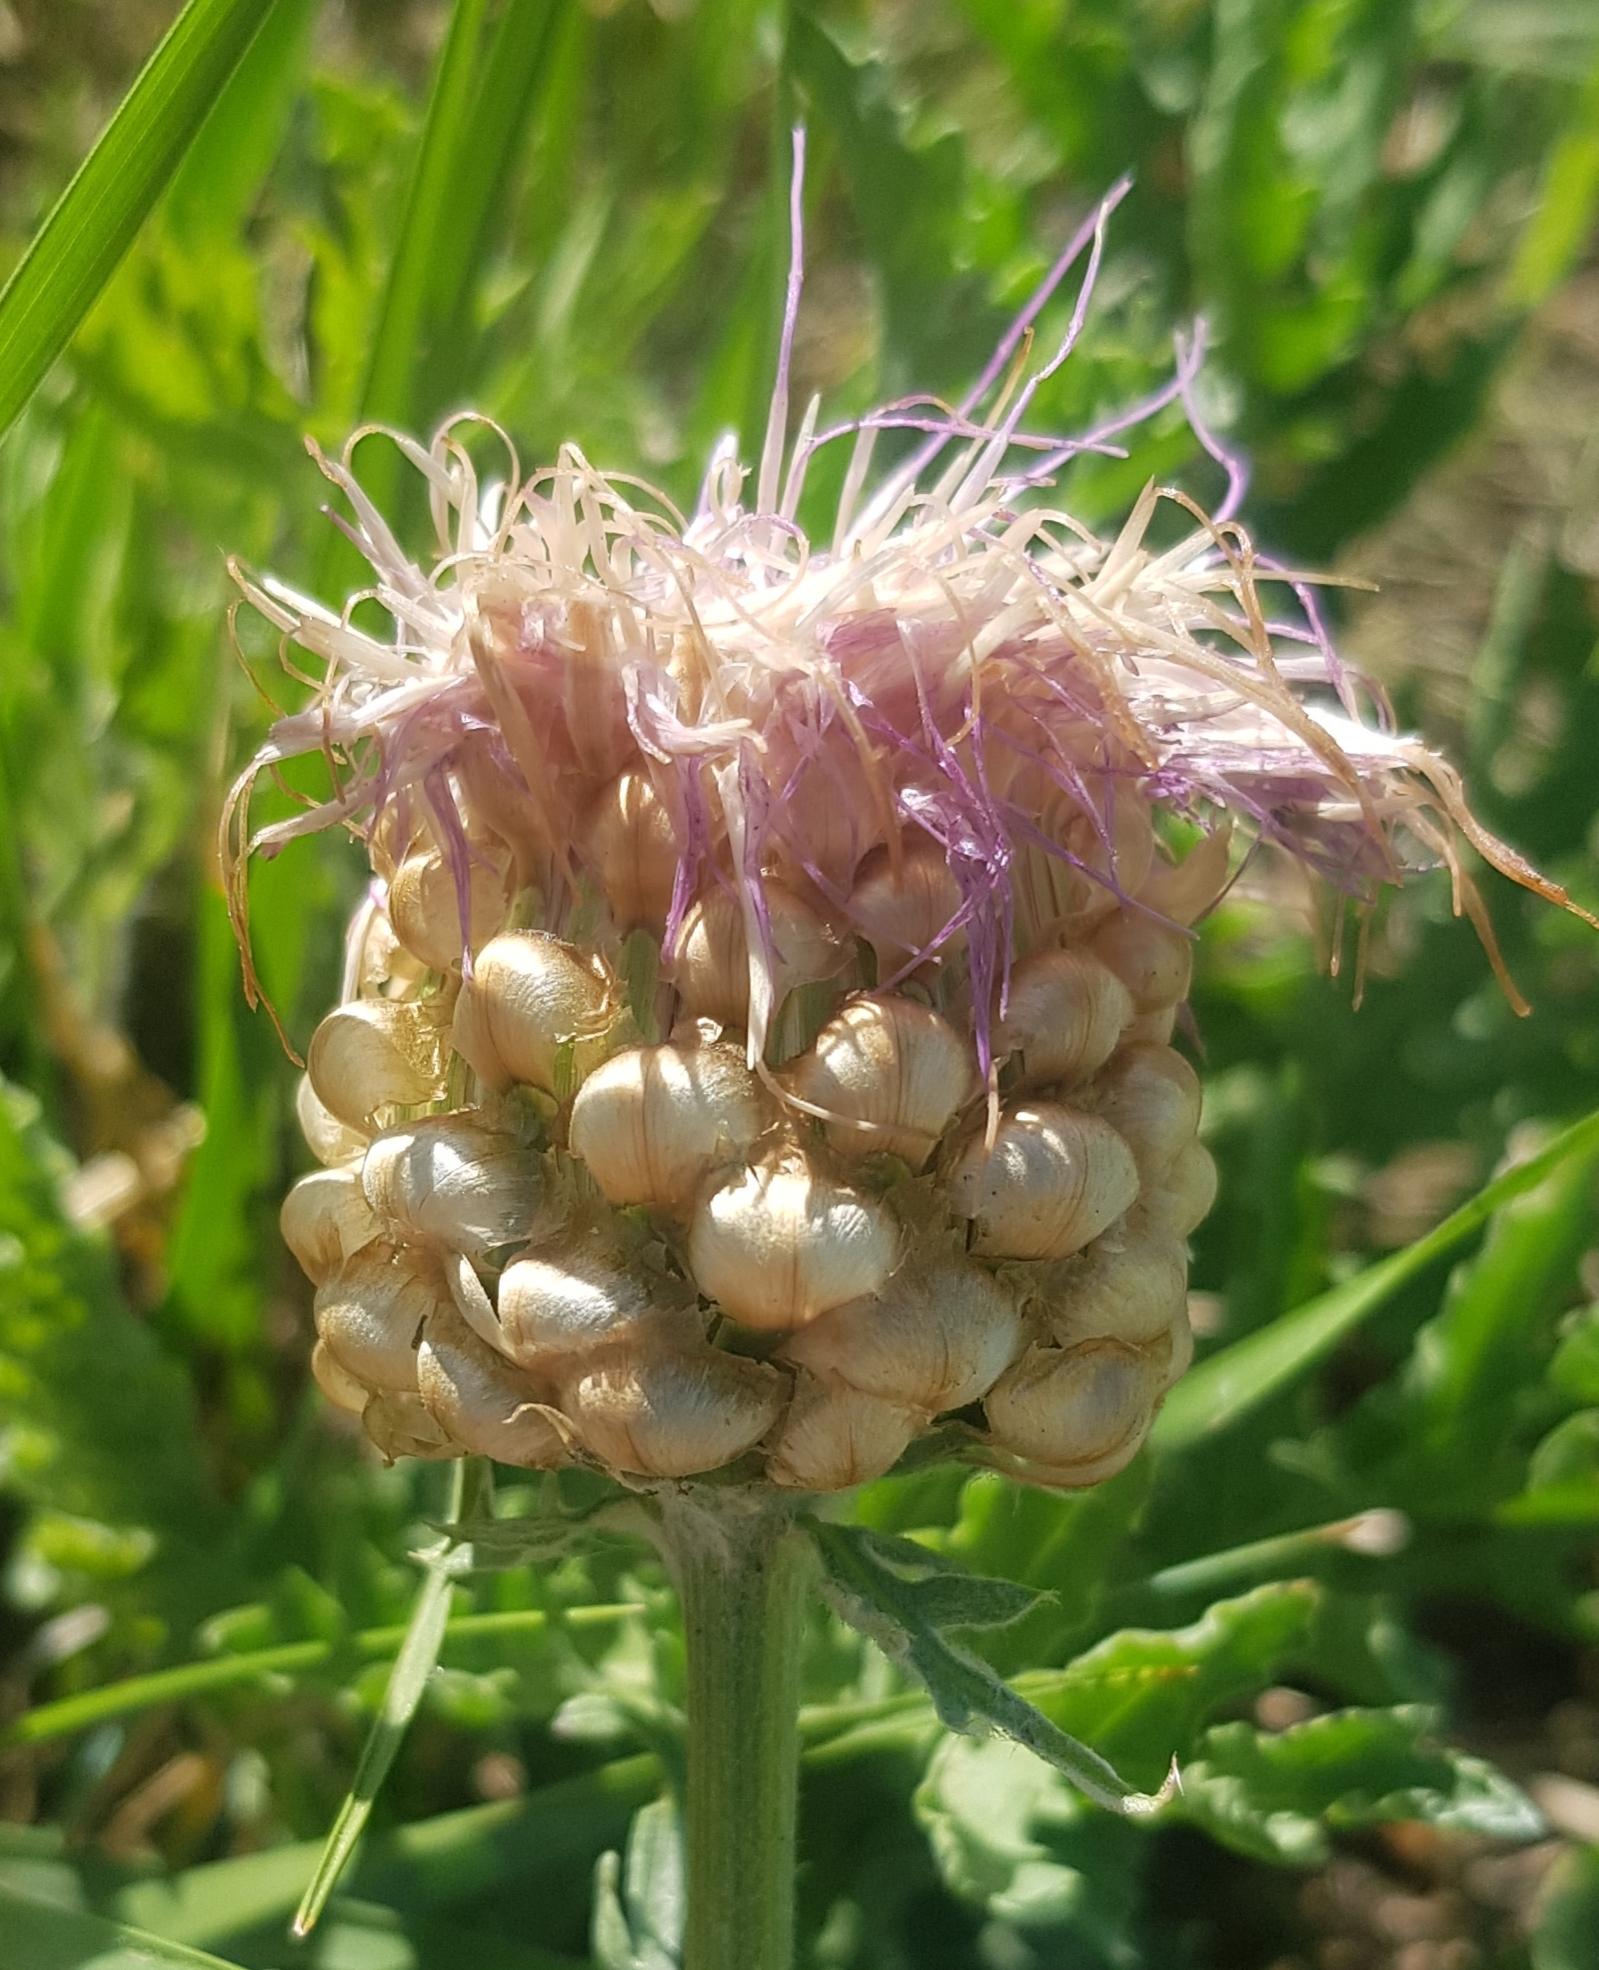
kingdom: Plantae
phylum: Tracheophyta
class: Magnoliopsida
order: Asterales
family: Asteraceae
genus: Leuzea
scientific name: Leuzea uniflora
